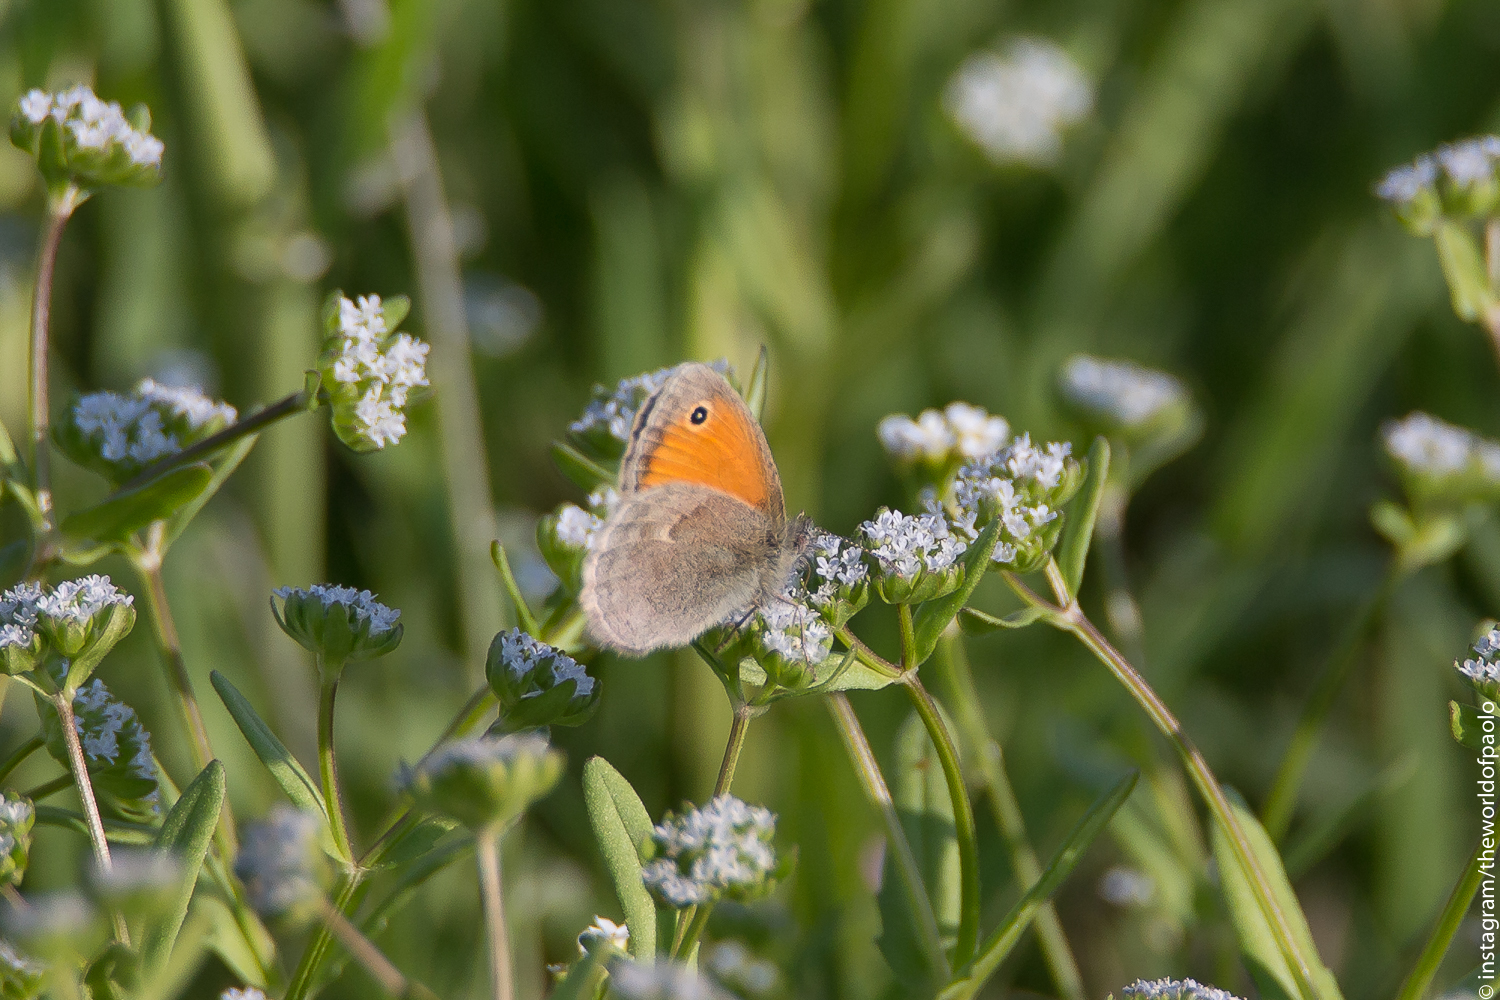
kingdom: Animalia
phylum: Arthropoda
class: Insecta
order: Lepidoptera
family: Nymphalidae
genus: Coenonympha
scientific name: Coenonympha pamphilus
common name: Small heath
